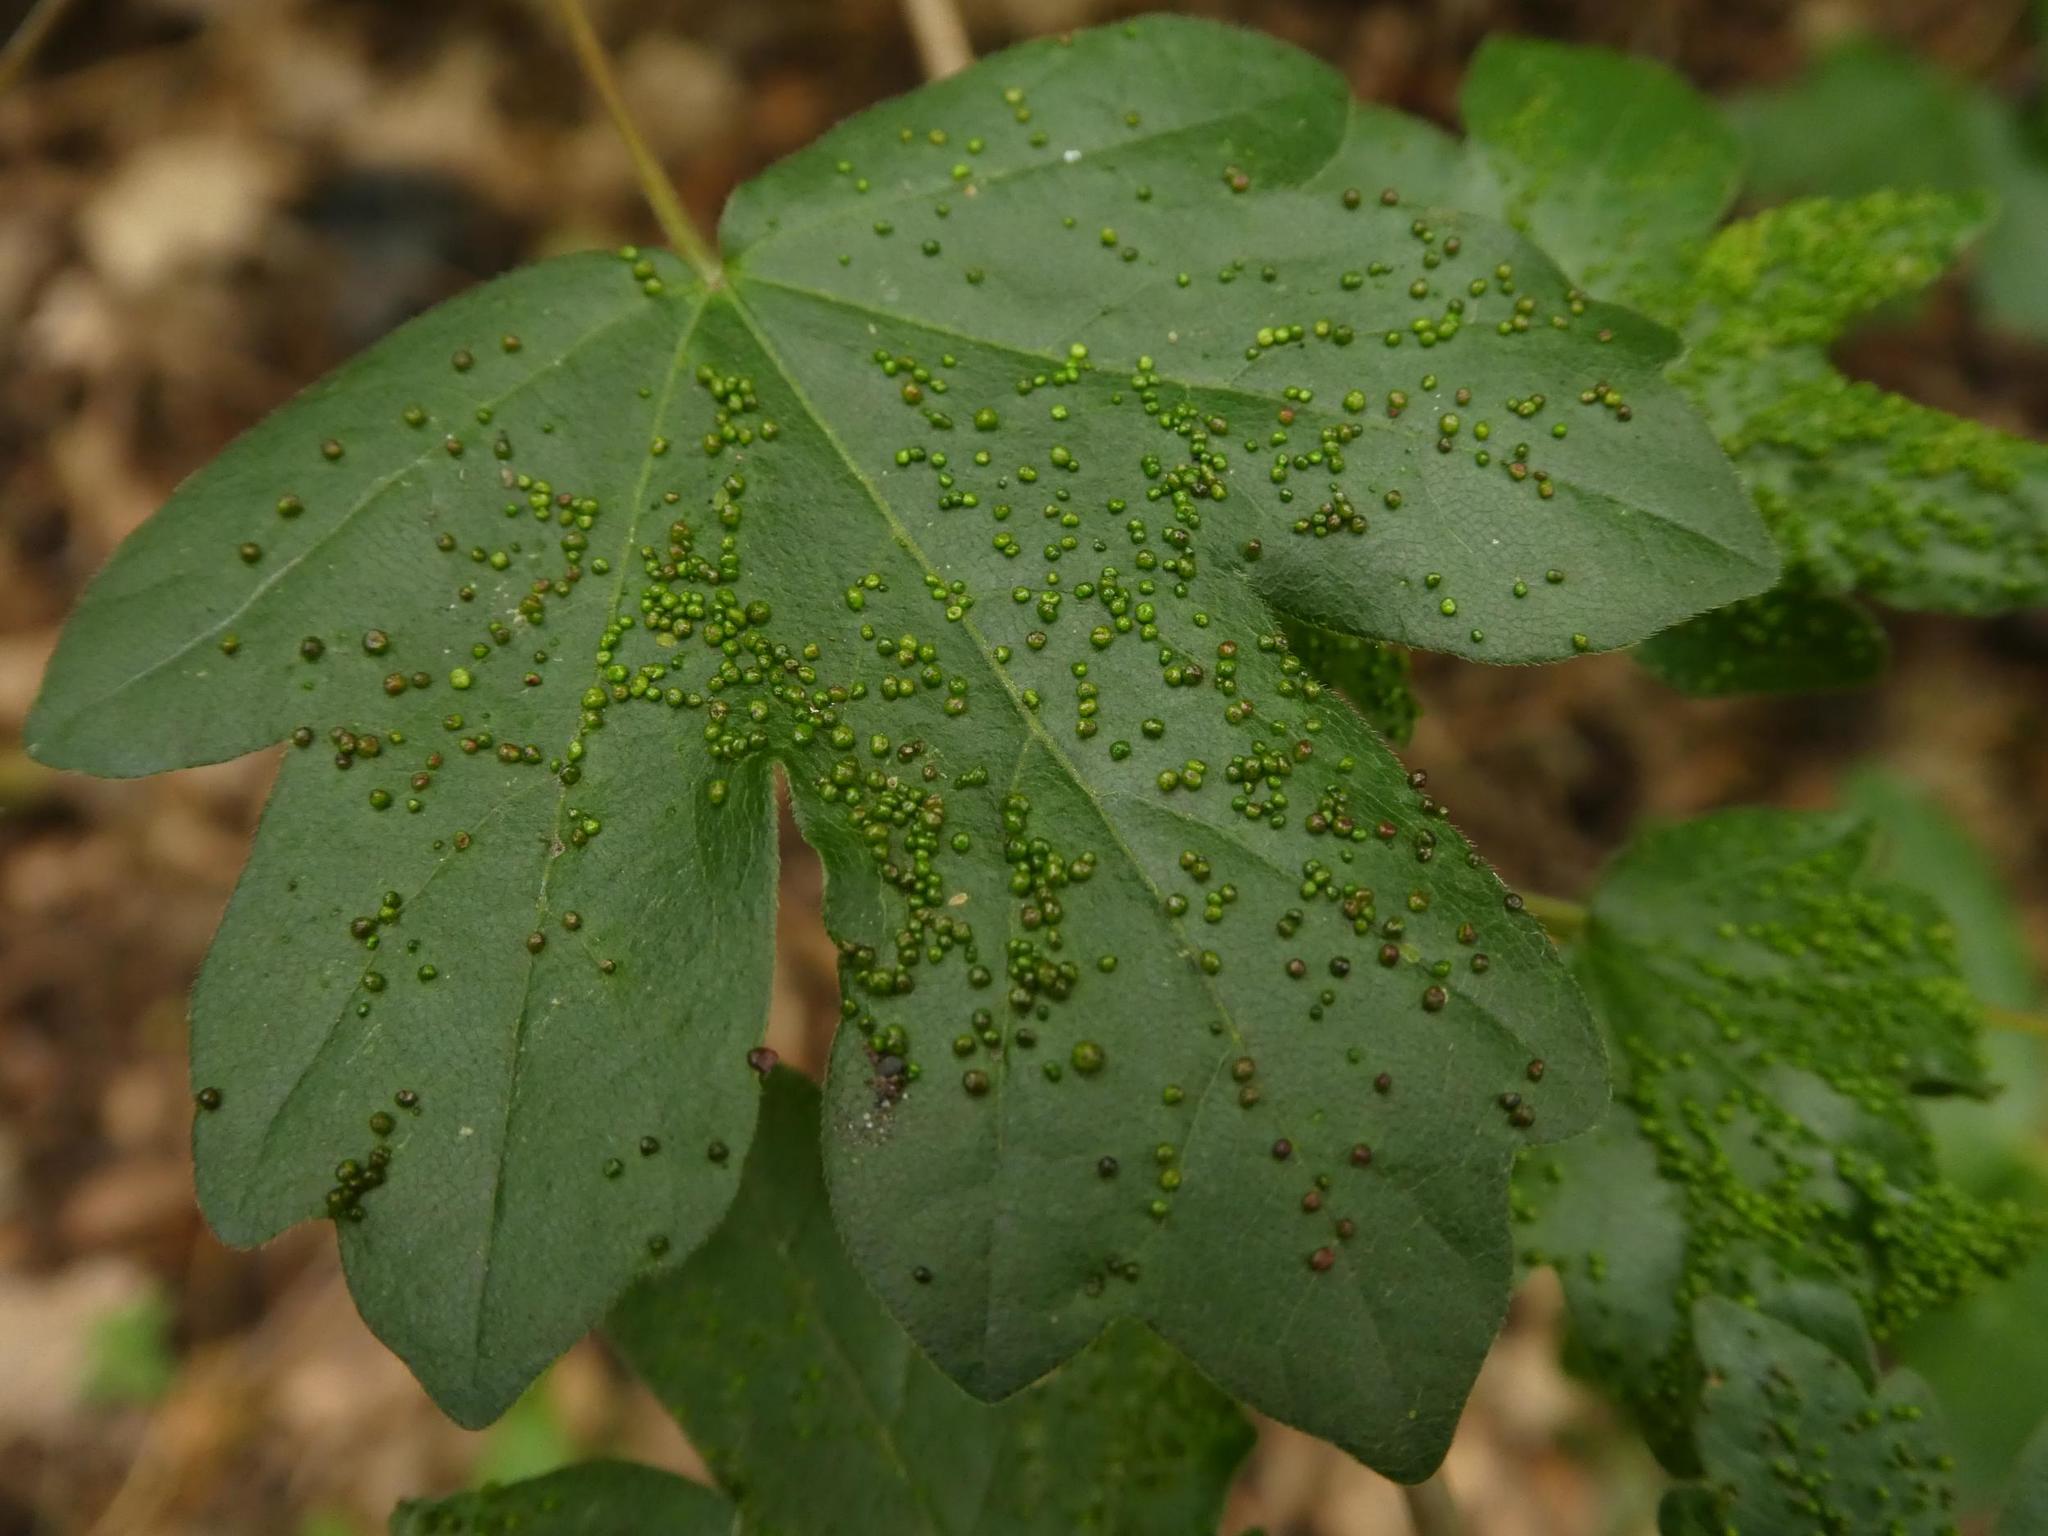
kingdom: Plantae
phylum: Tracheophyta
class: Magnoliopsida
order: Sapindales
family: Sapindaceae
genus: Acer
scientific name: Acer campestre
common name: Field maple
